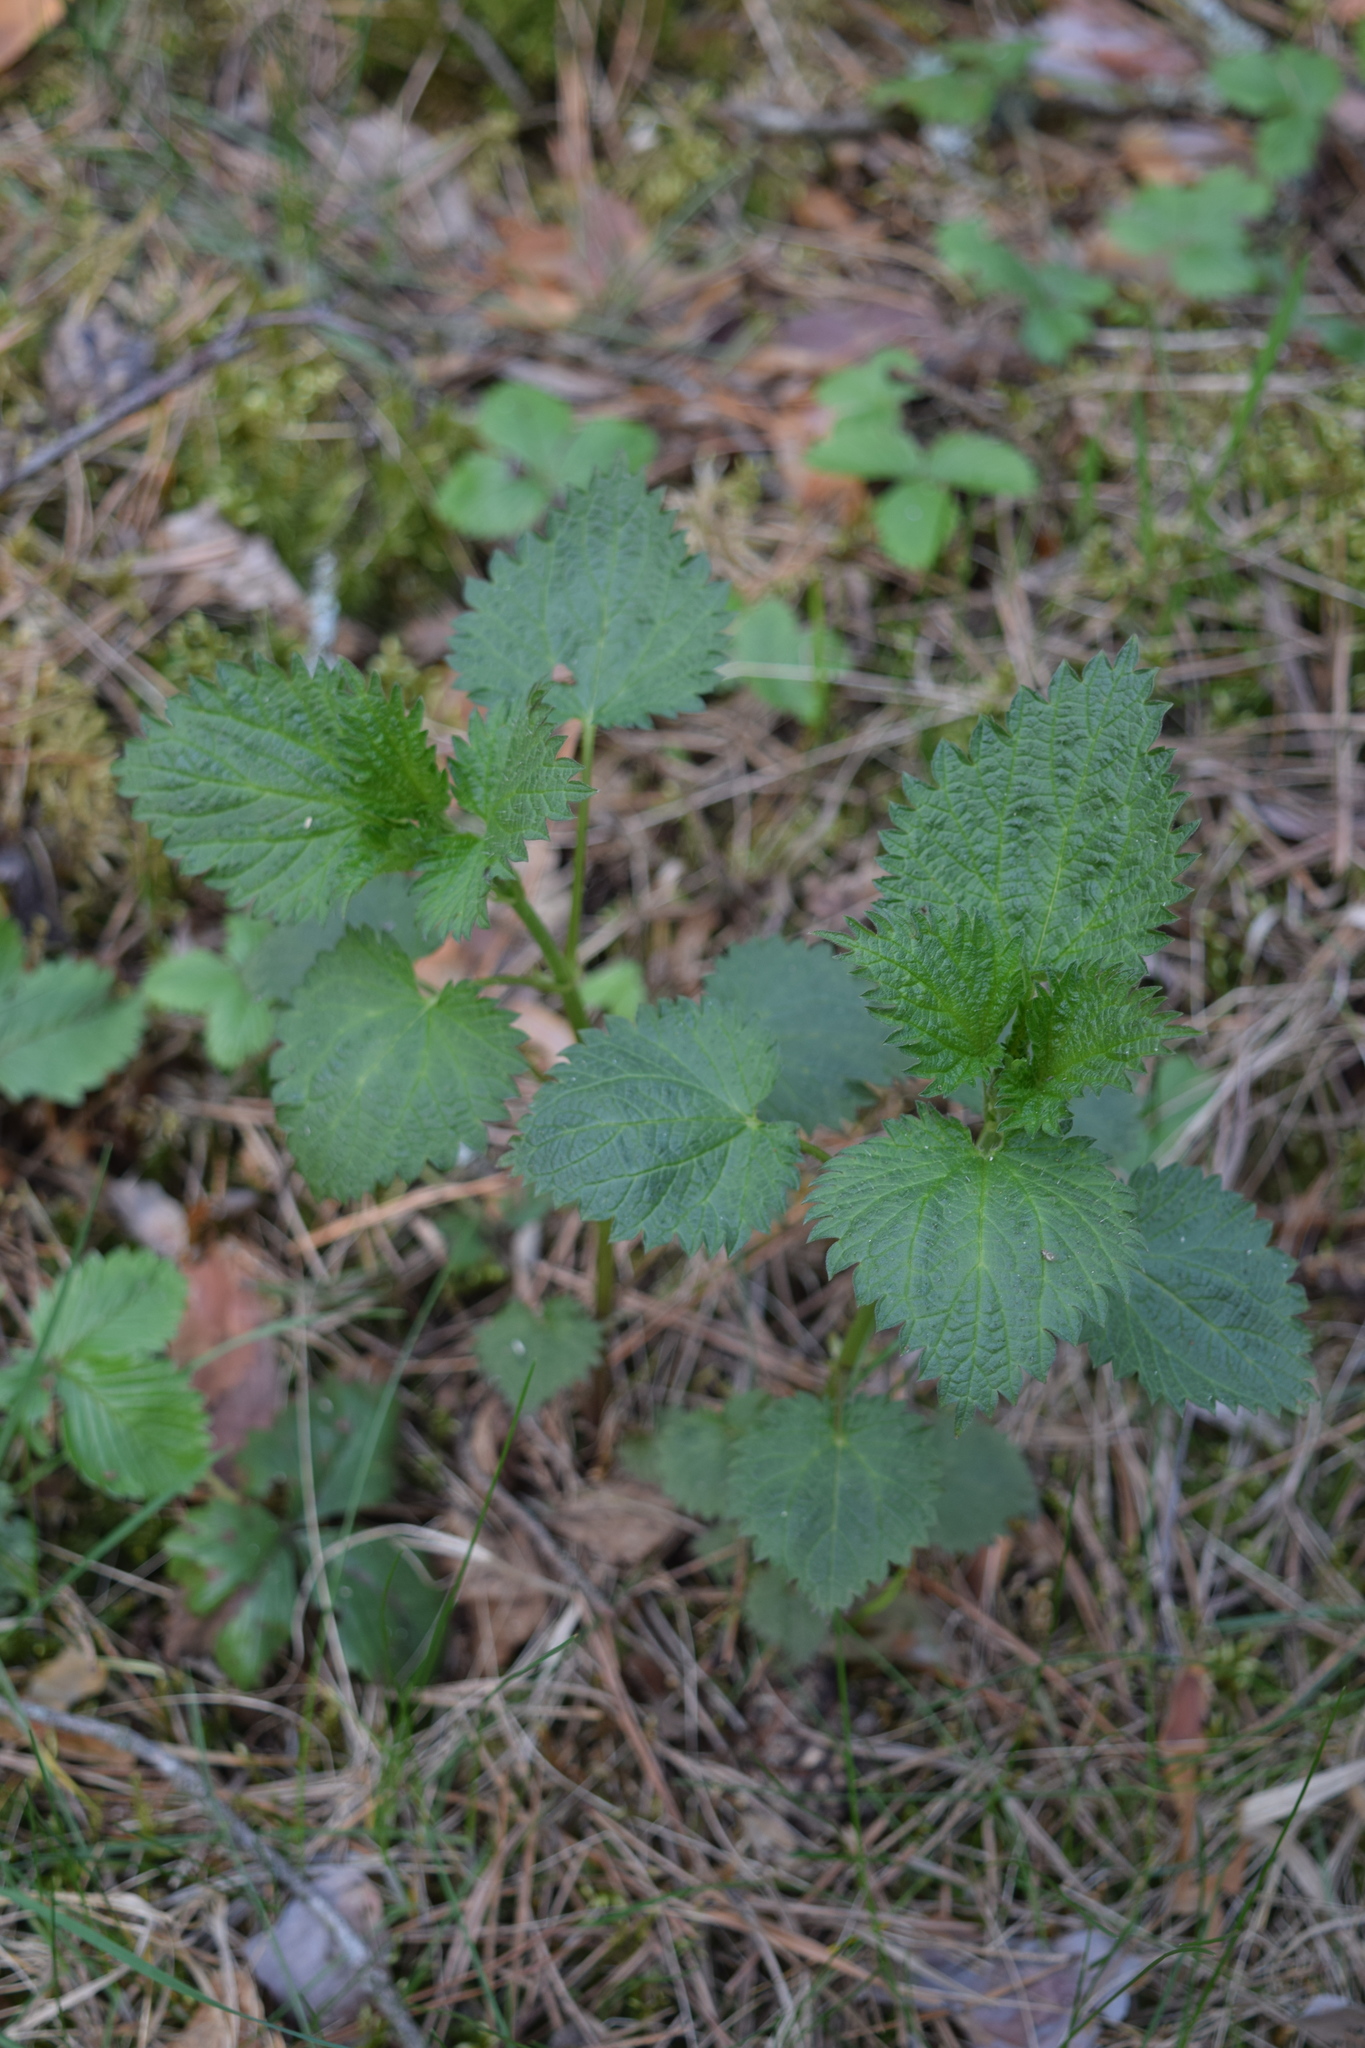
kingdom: Plantae
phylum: Tracheophyta
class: Magnoliopsida
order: Rosales
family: Urticaceae
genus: Urtica
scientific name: Urtica dioica
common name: Common nettle
